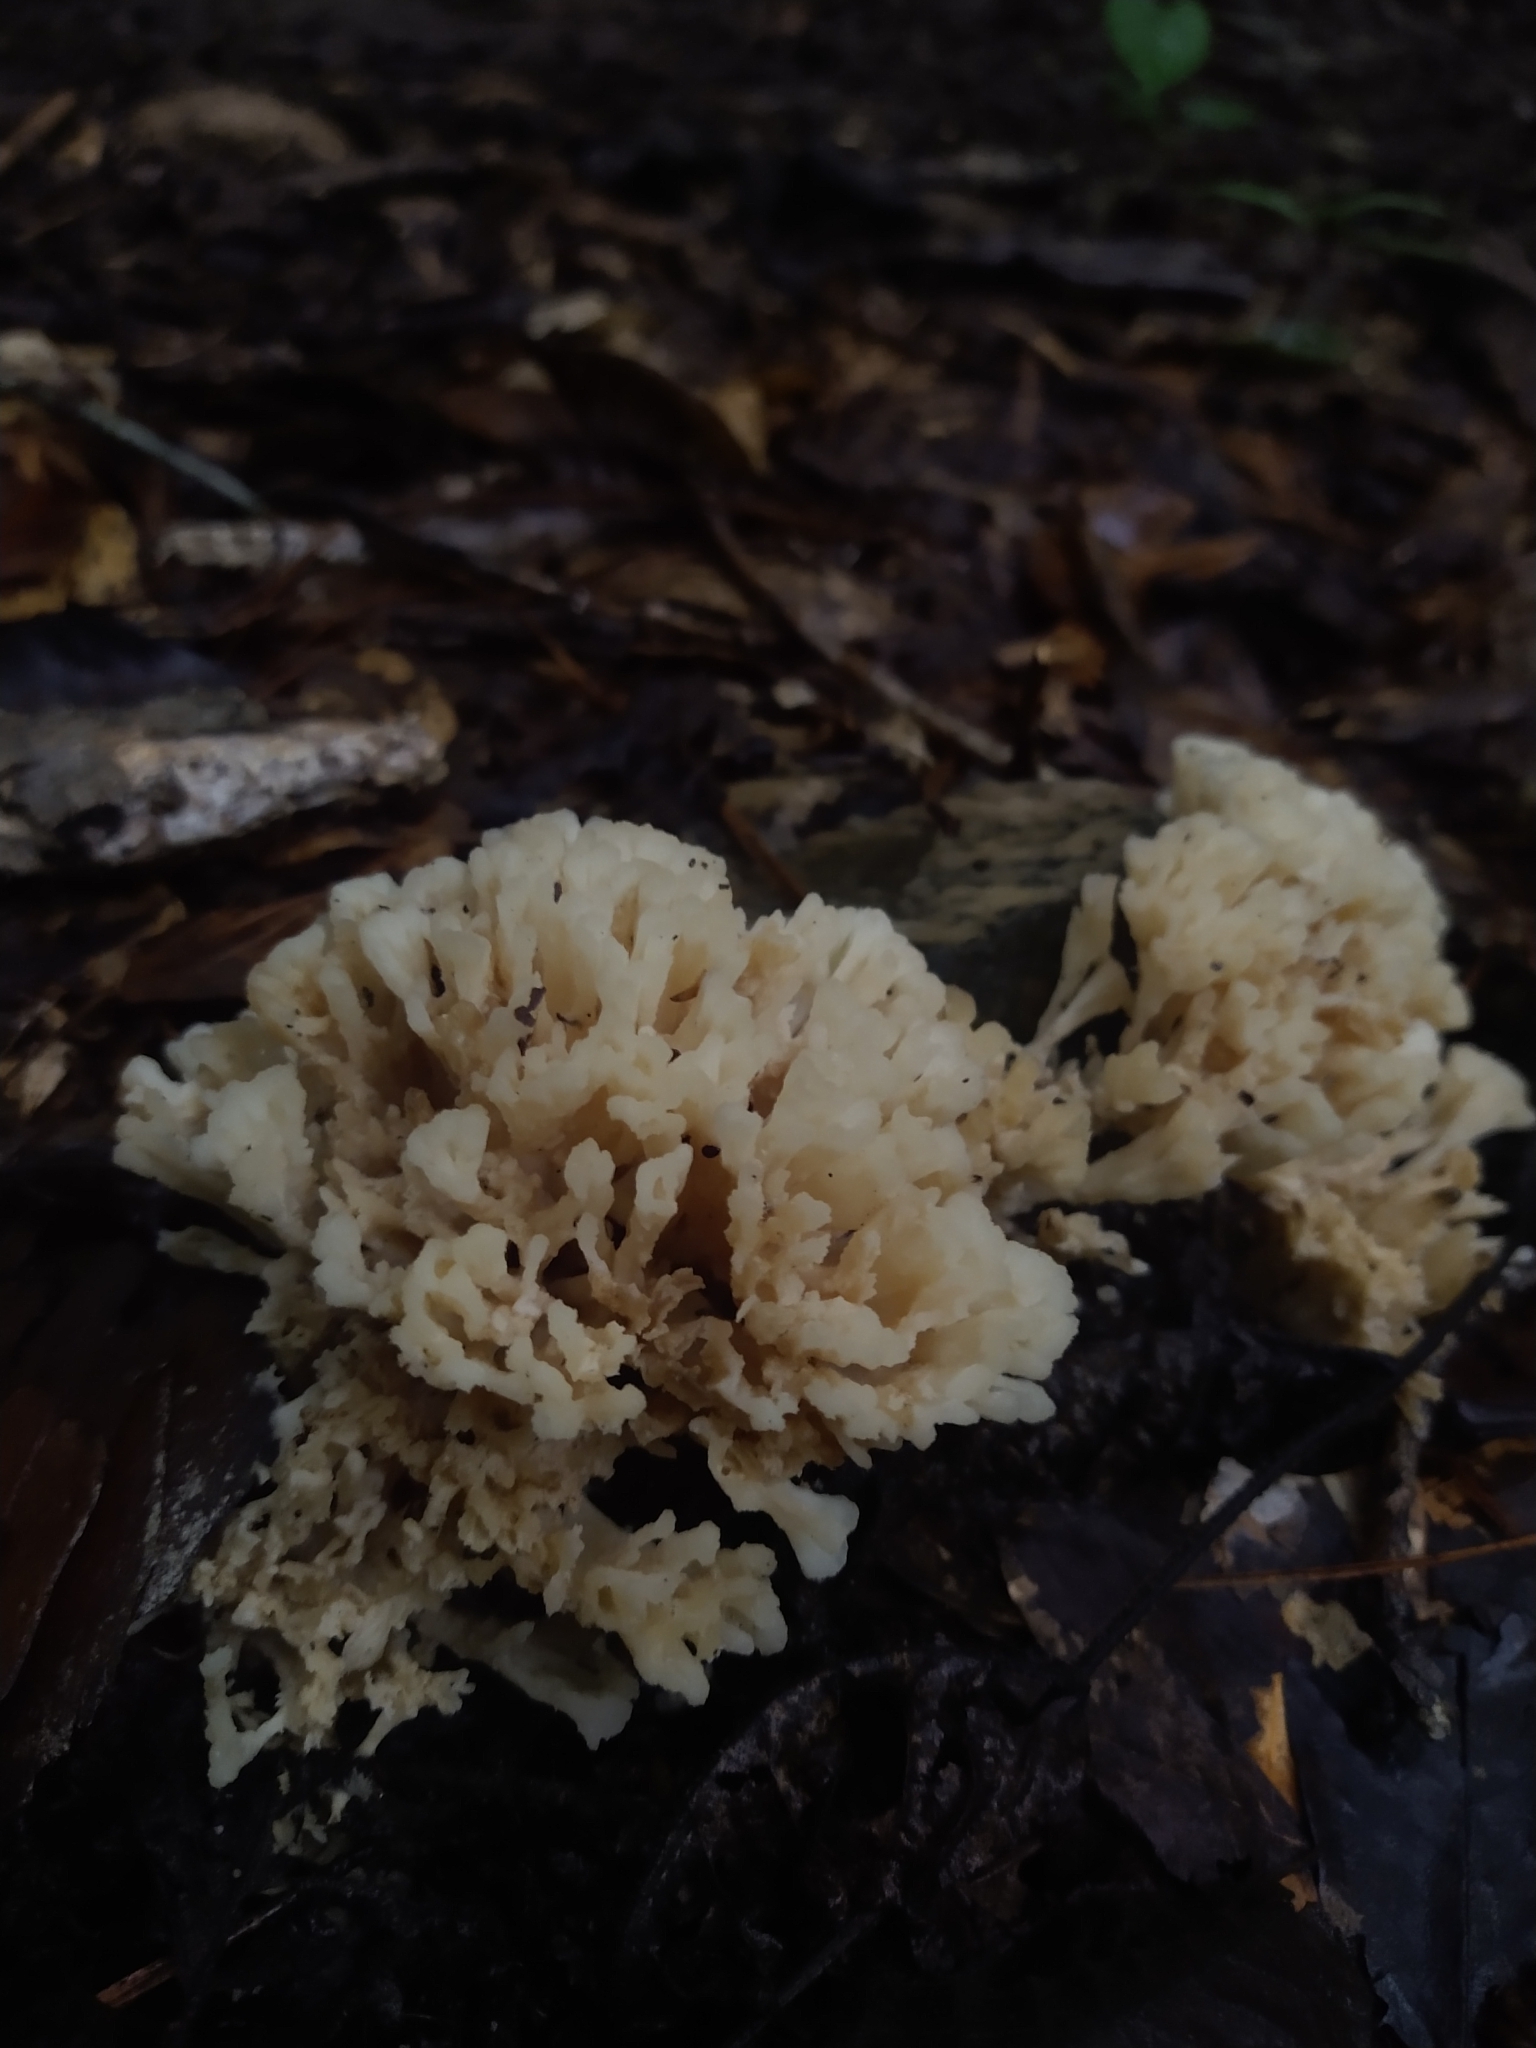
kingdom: Fungi
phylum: Basidiomycota
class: Agaricomycetes
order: Sebacinales
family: Sebacinaceae
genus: Sebacina
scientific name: Sebacina schweinitzii
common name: Jellied false coral fungus
